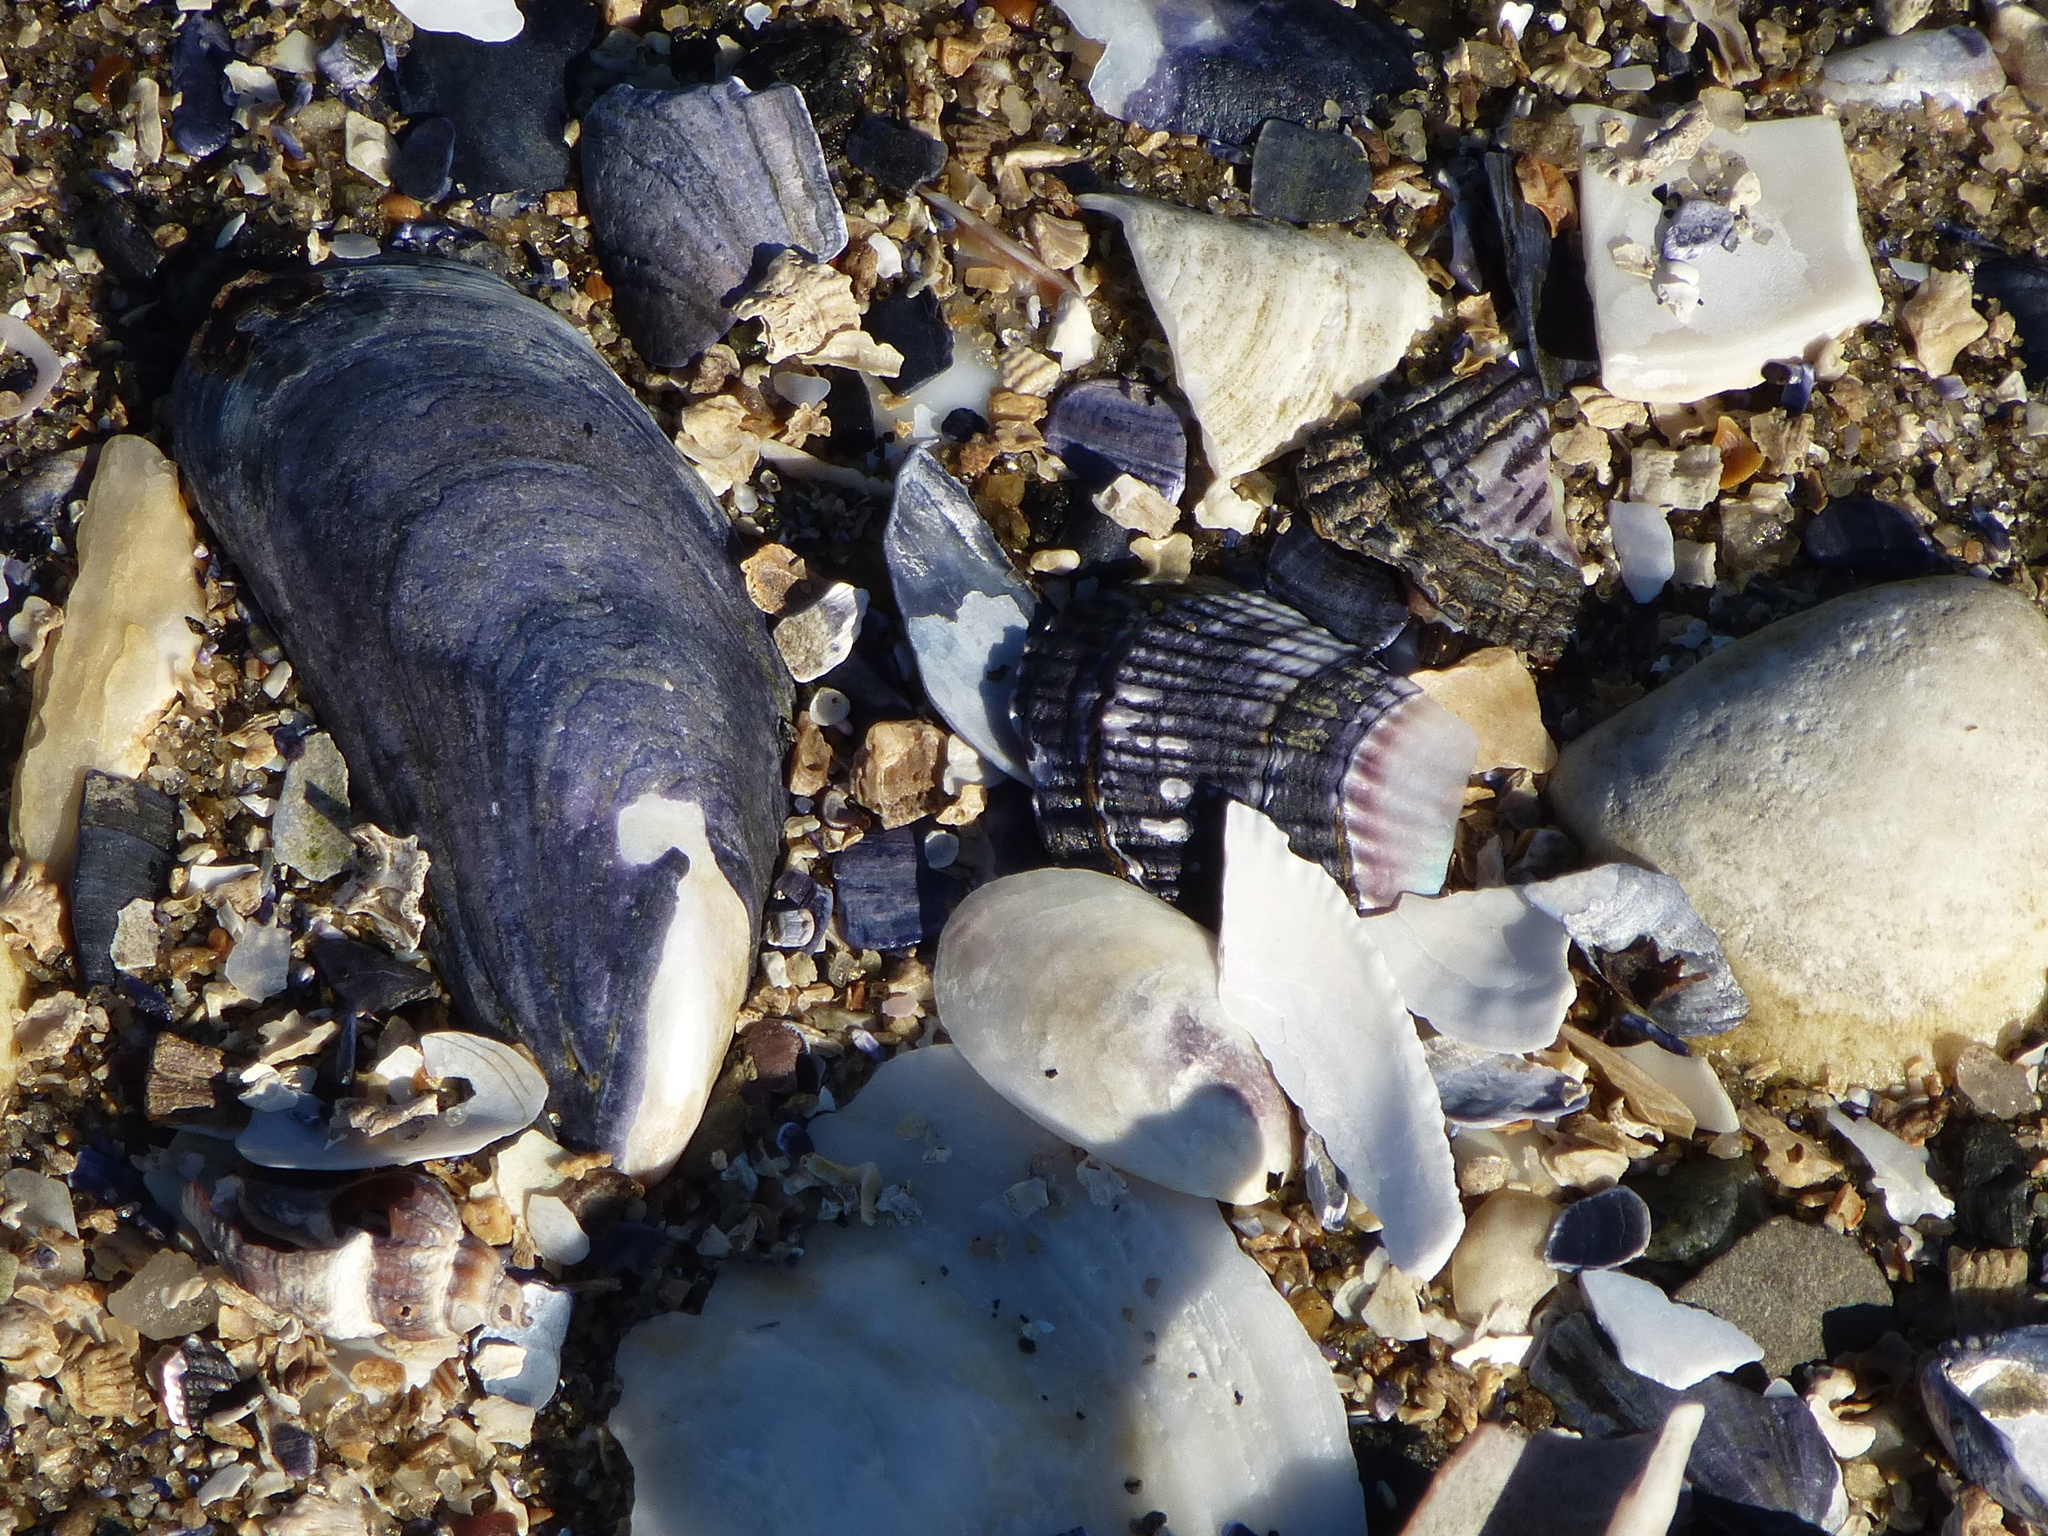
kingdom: Animalia
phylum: Mollusca
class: Bivalvia
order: Mytilida
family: Mytilidae
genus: Mytilus
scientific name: Mytilus edulis
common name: Blue mussel
